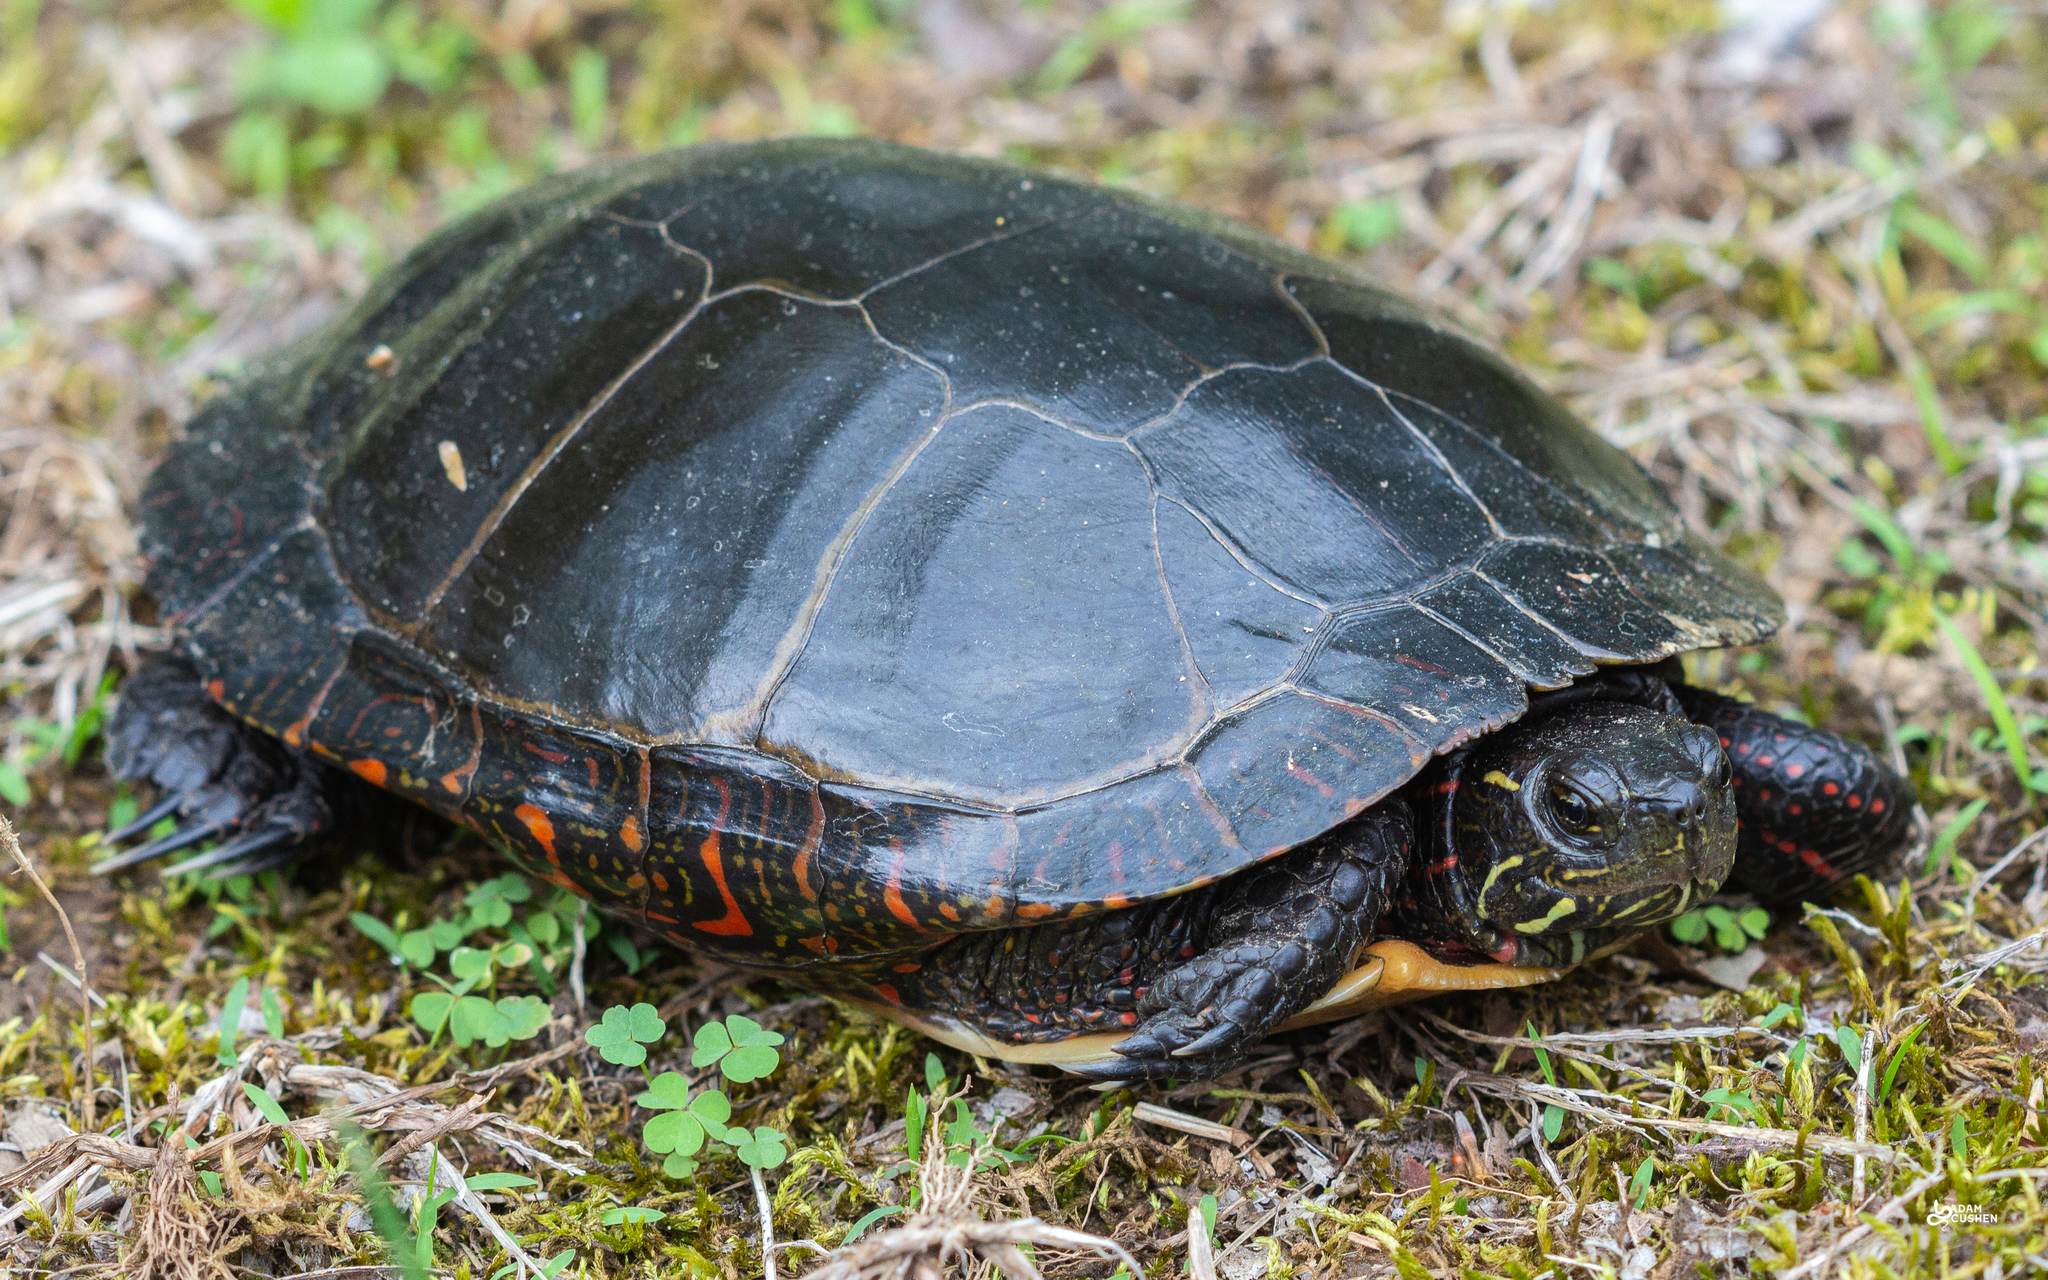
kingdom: Animalia
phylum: Chordata
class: Testudines
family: Emydidae
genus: Chrysemys
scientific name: Chrysemys picta
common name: Painted turtle
